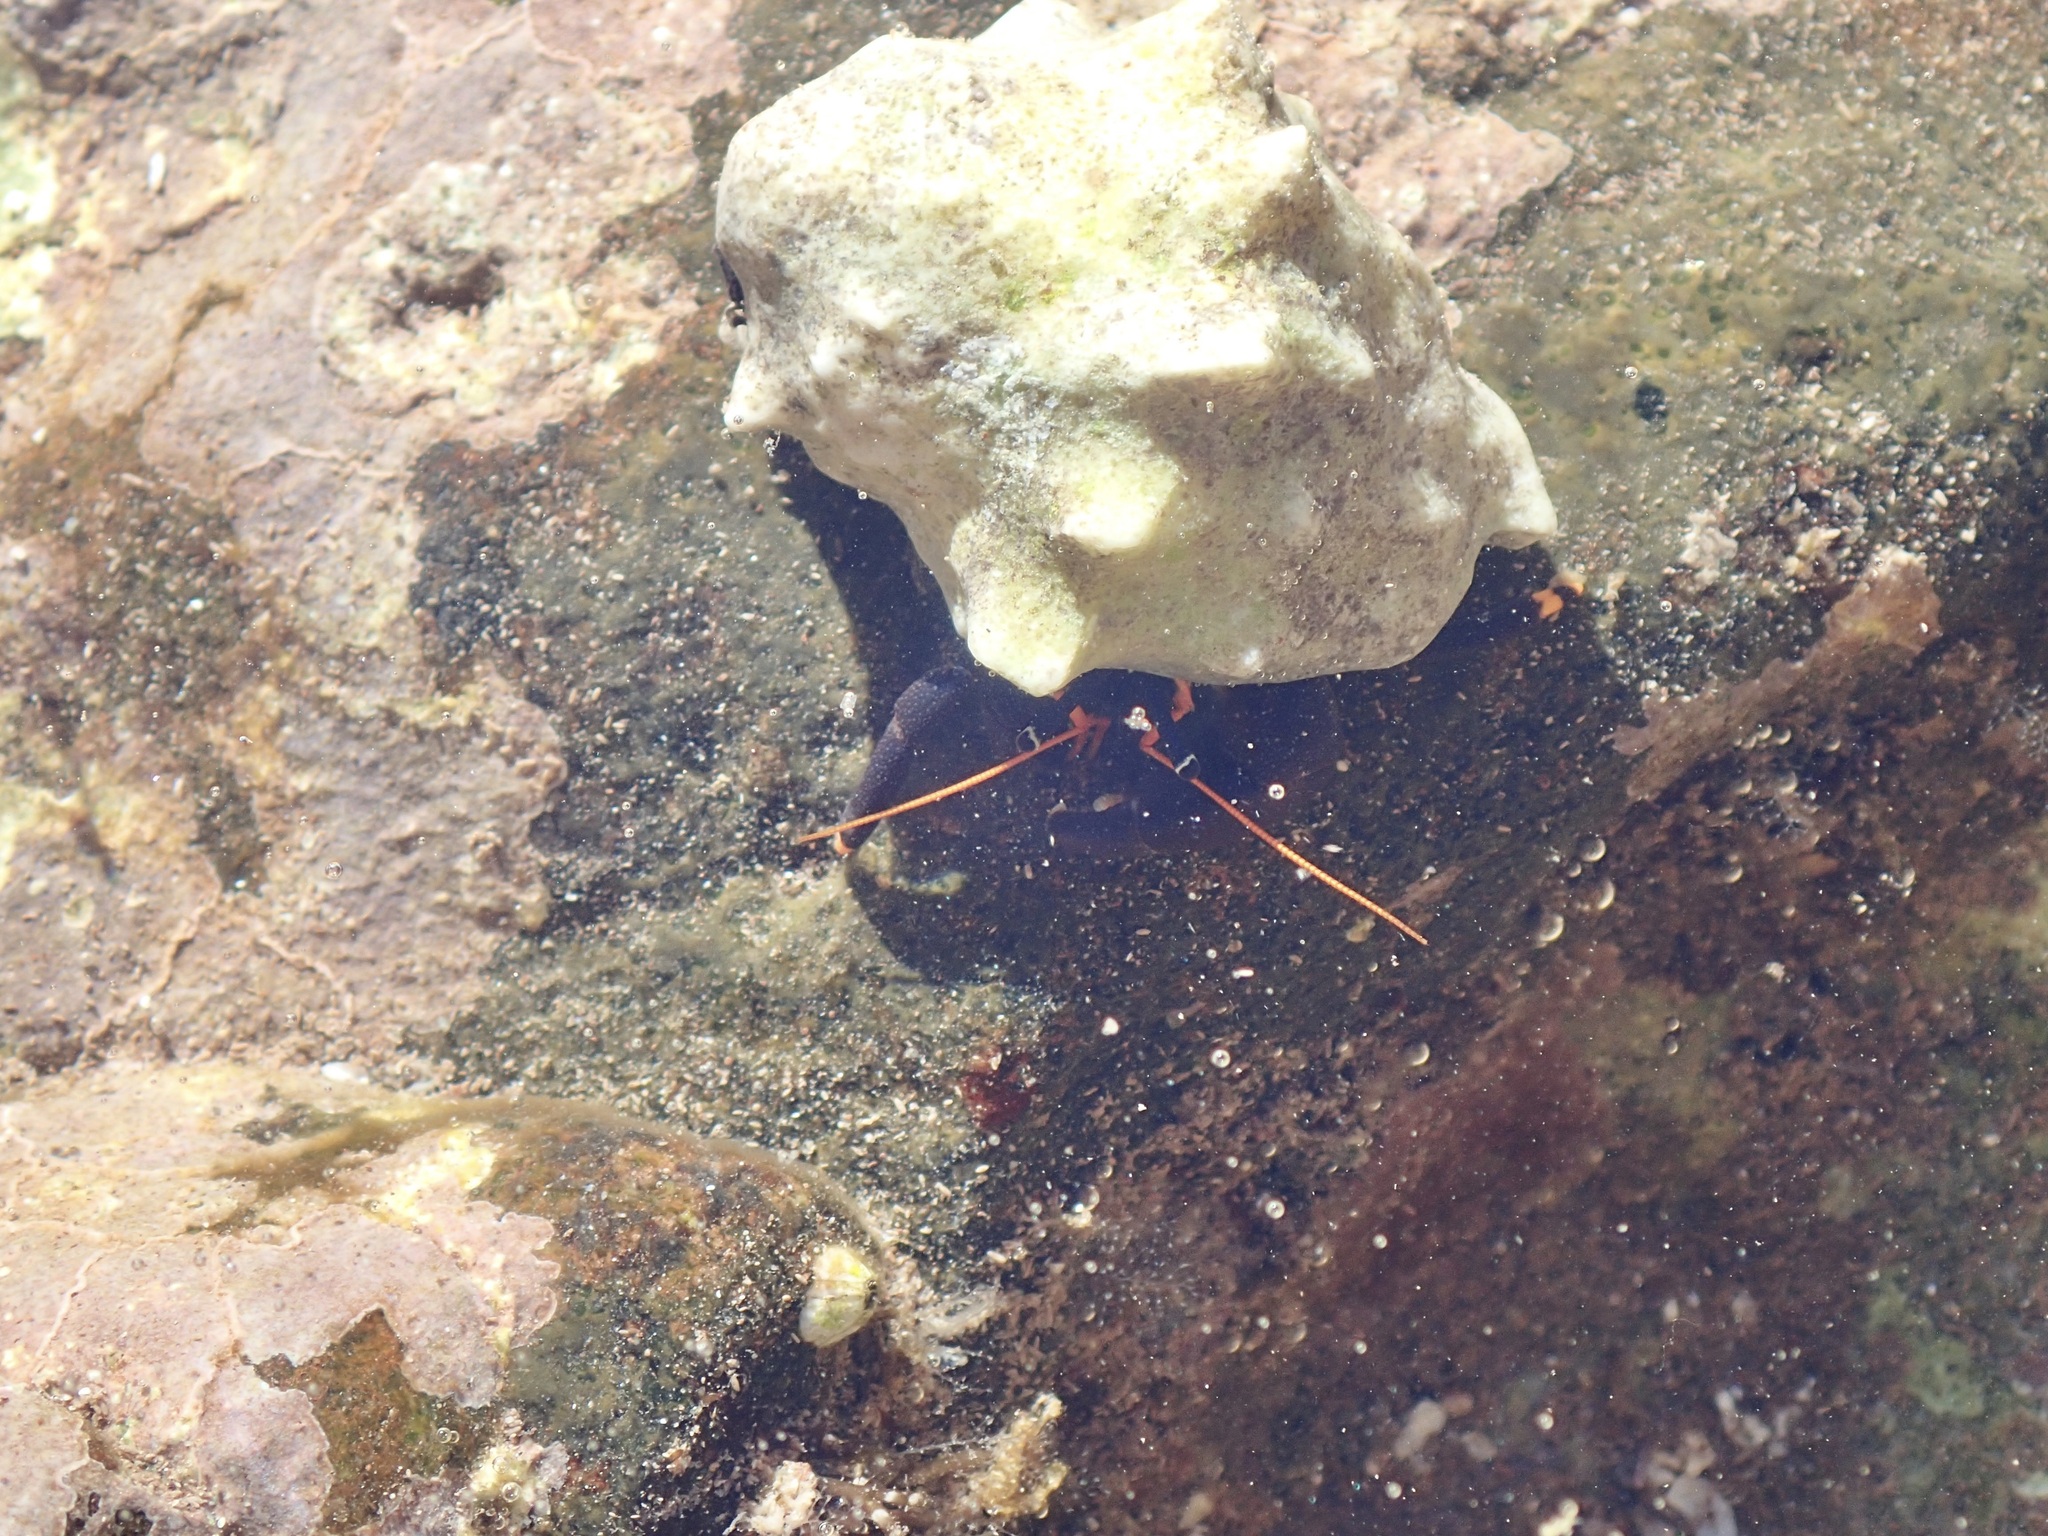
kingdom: Animalia
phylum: Arthropoda
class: Malacostraca
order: Decapoda
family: Diogenidae
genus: Calcinus
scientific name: Calcinus explorator
